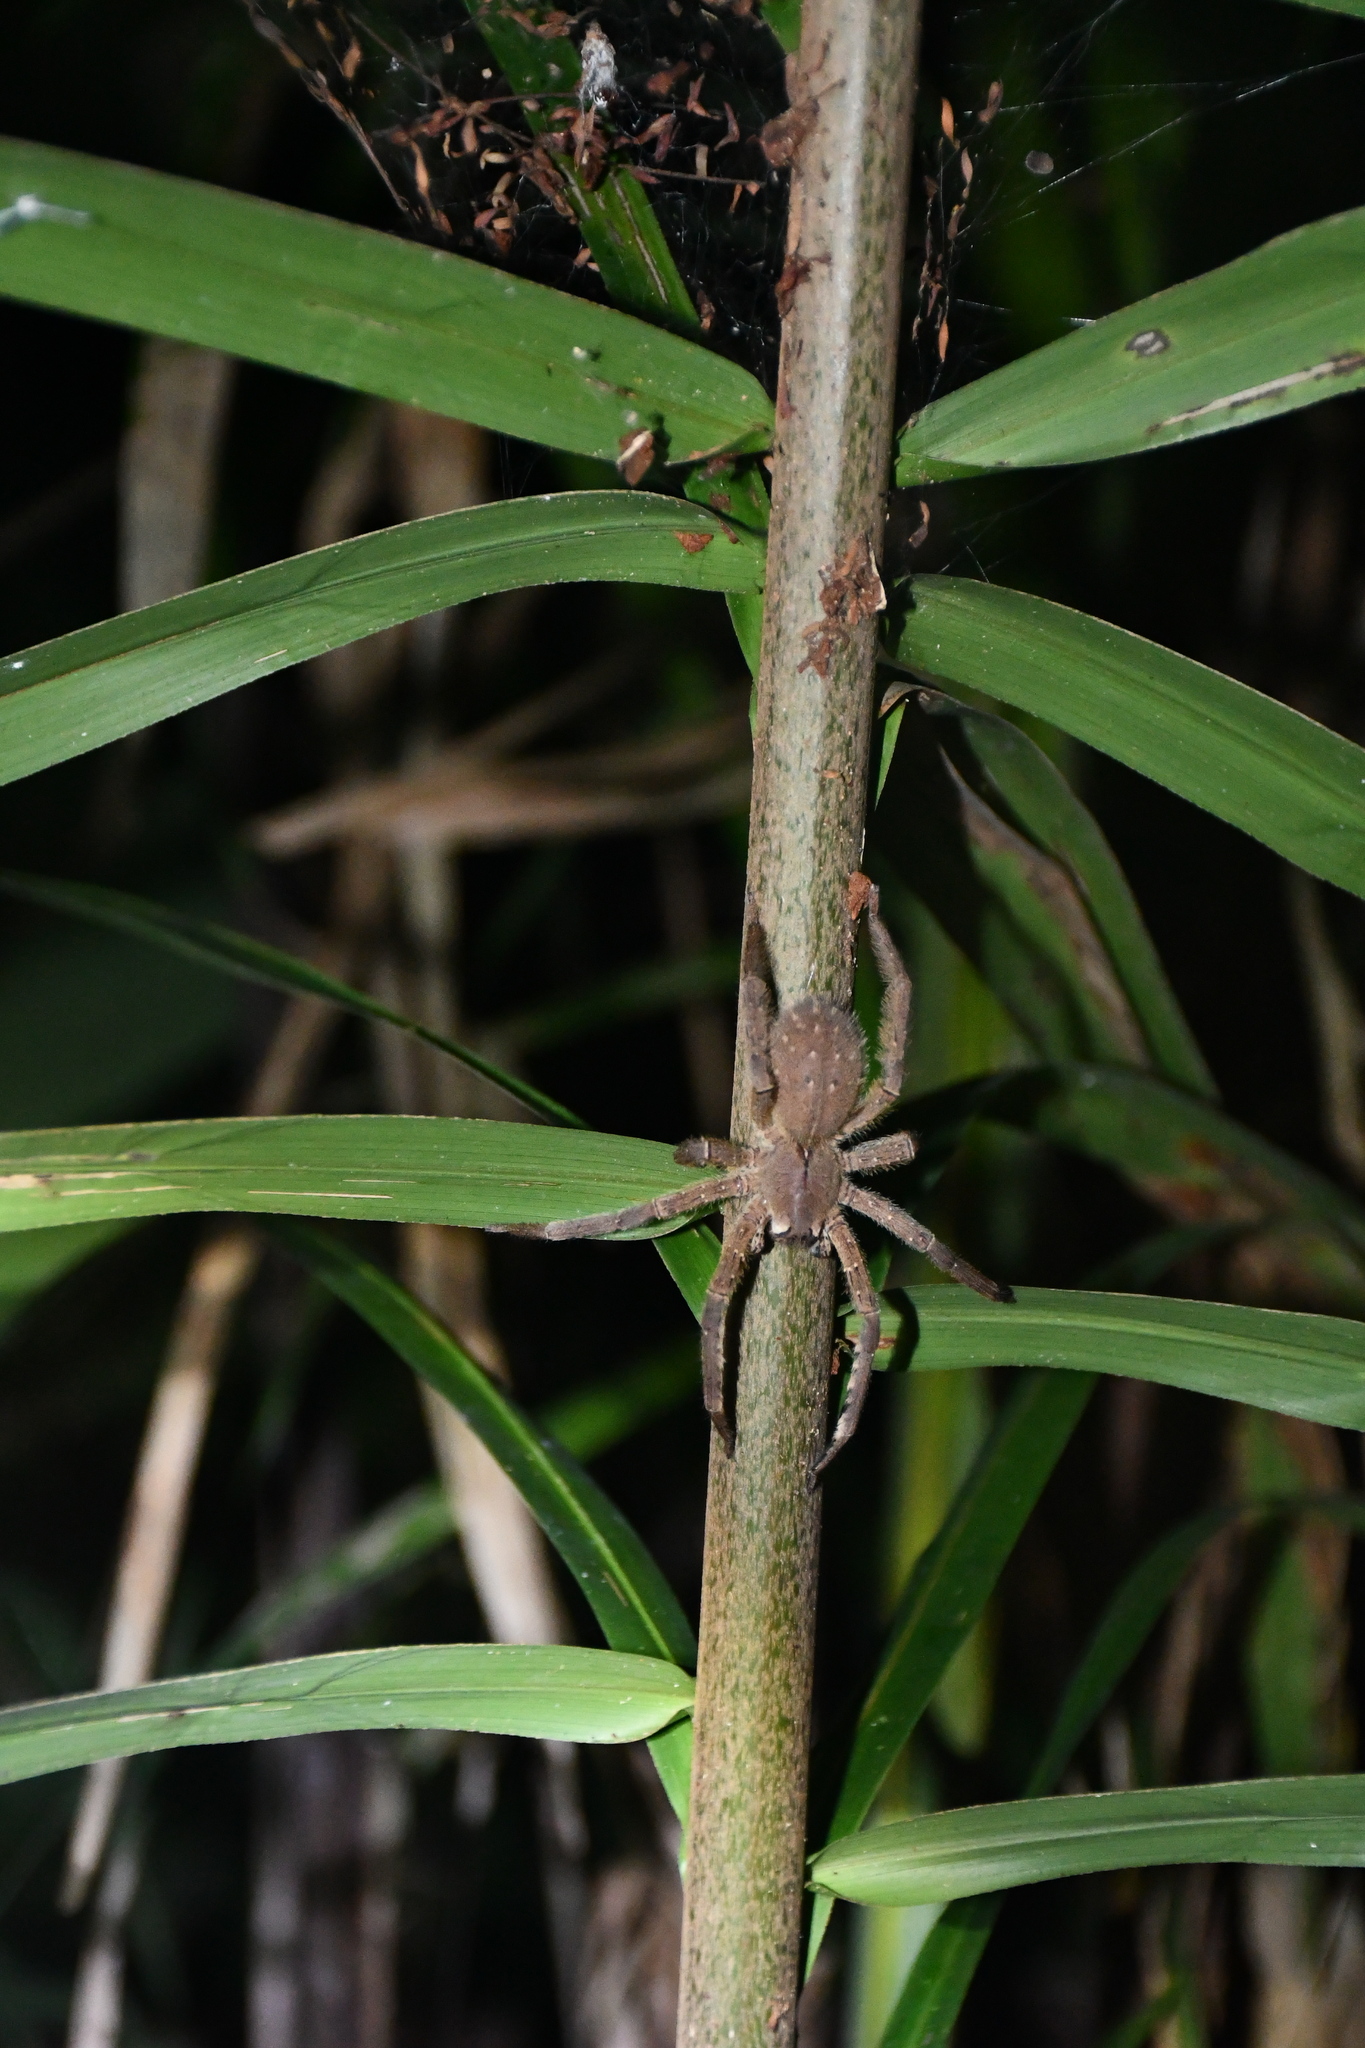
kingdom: Animalia
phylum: Arthropoda
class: Arachnida
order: Araneae
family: Ctenidae
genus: Phoneutria
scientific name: Phoneutria boliviensis
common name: Wandering spiders
